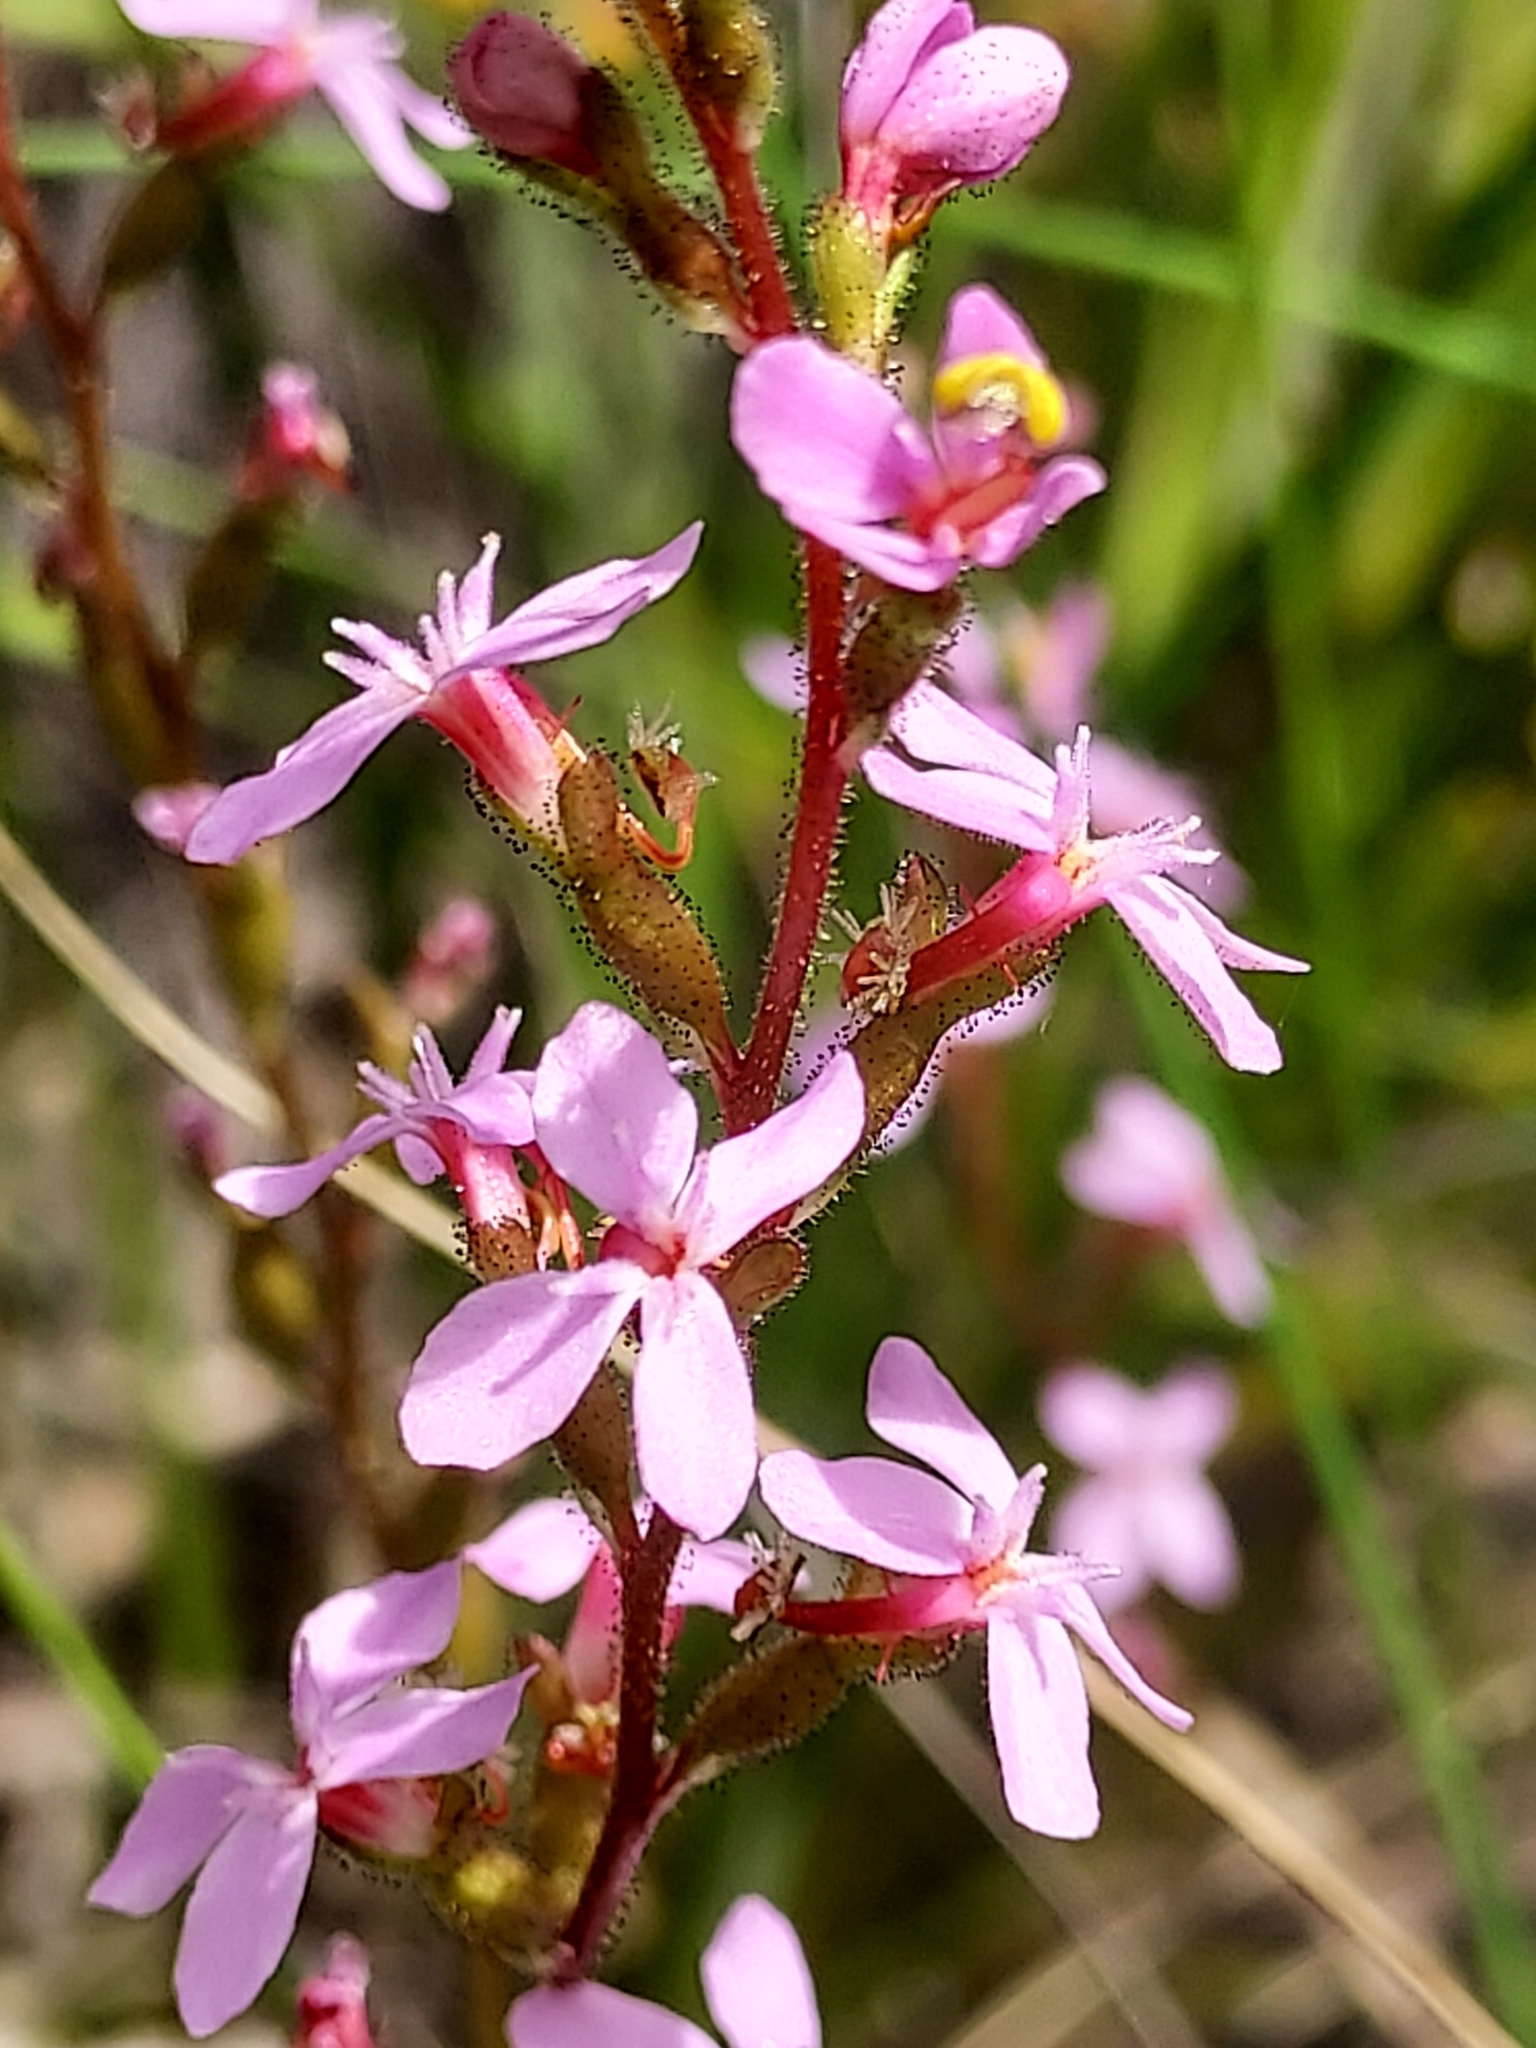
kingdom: Plantae
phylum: Tracheophyta
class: Magnoliopsida
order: Asterales
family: Stylidiaceae
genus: Stylidium
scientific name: Stylidium graminifolium
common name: Grass triggerplant
